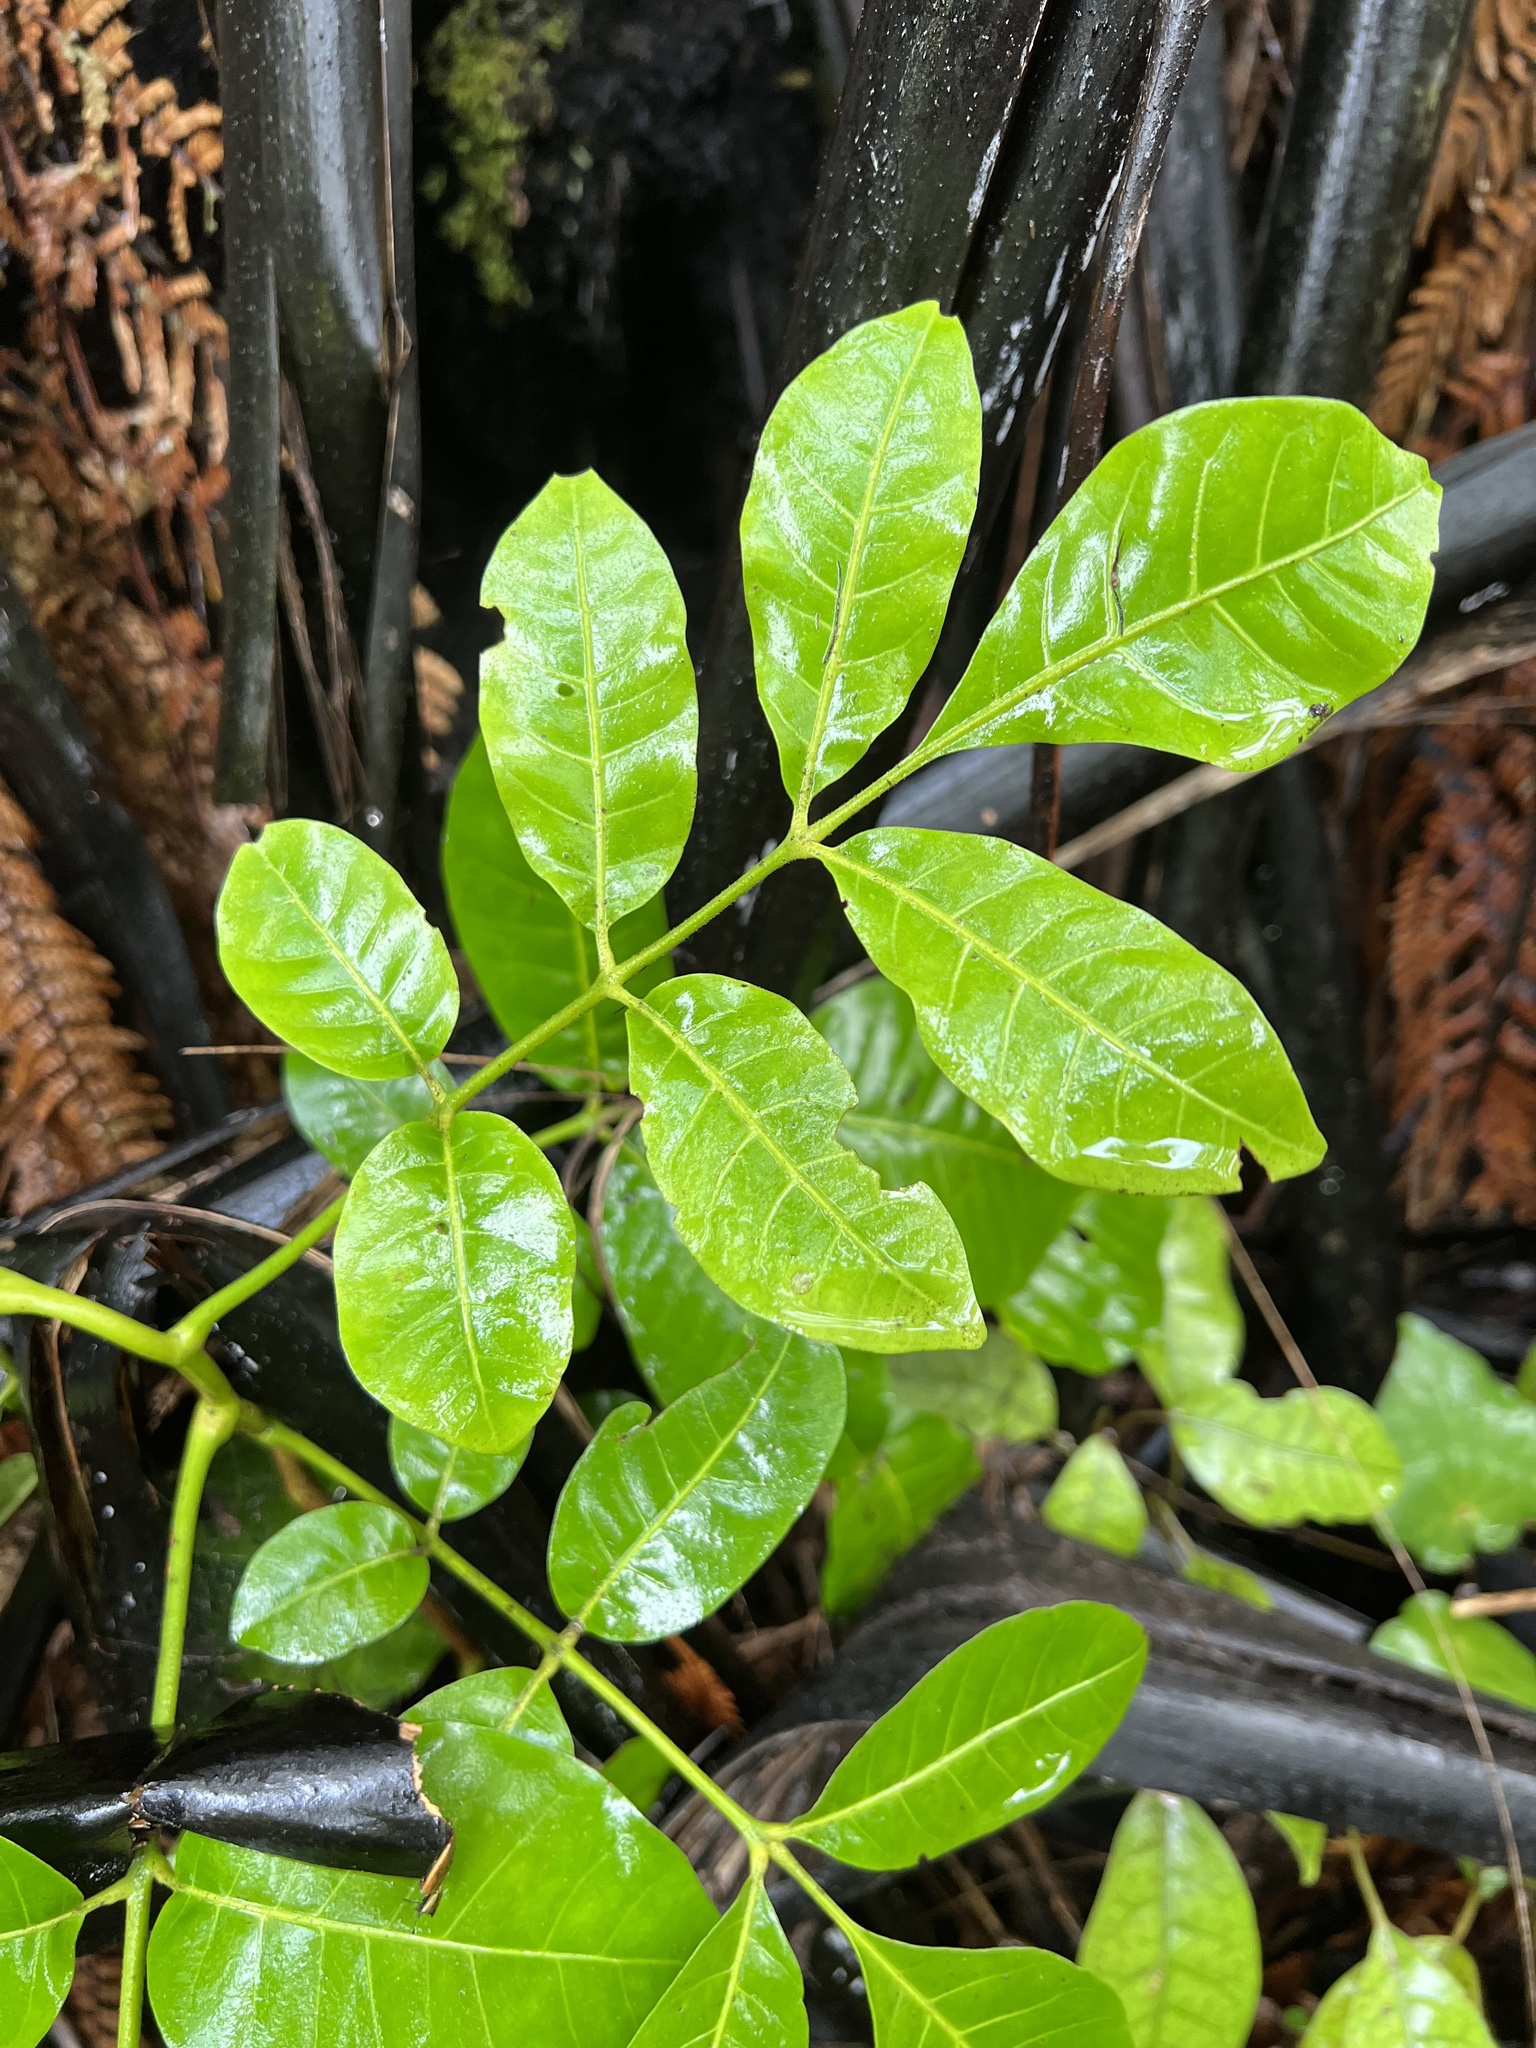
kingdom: Plantae
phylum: Tracheophyta
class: Magnoliopsida
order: Sapindales
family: Meliaceae
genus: Didymocheton
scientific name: Didymocheton spectabilis
